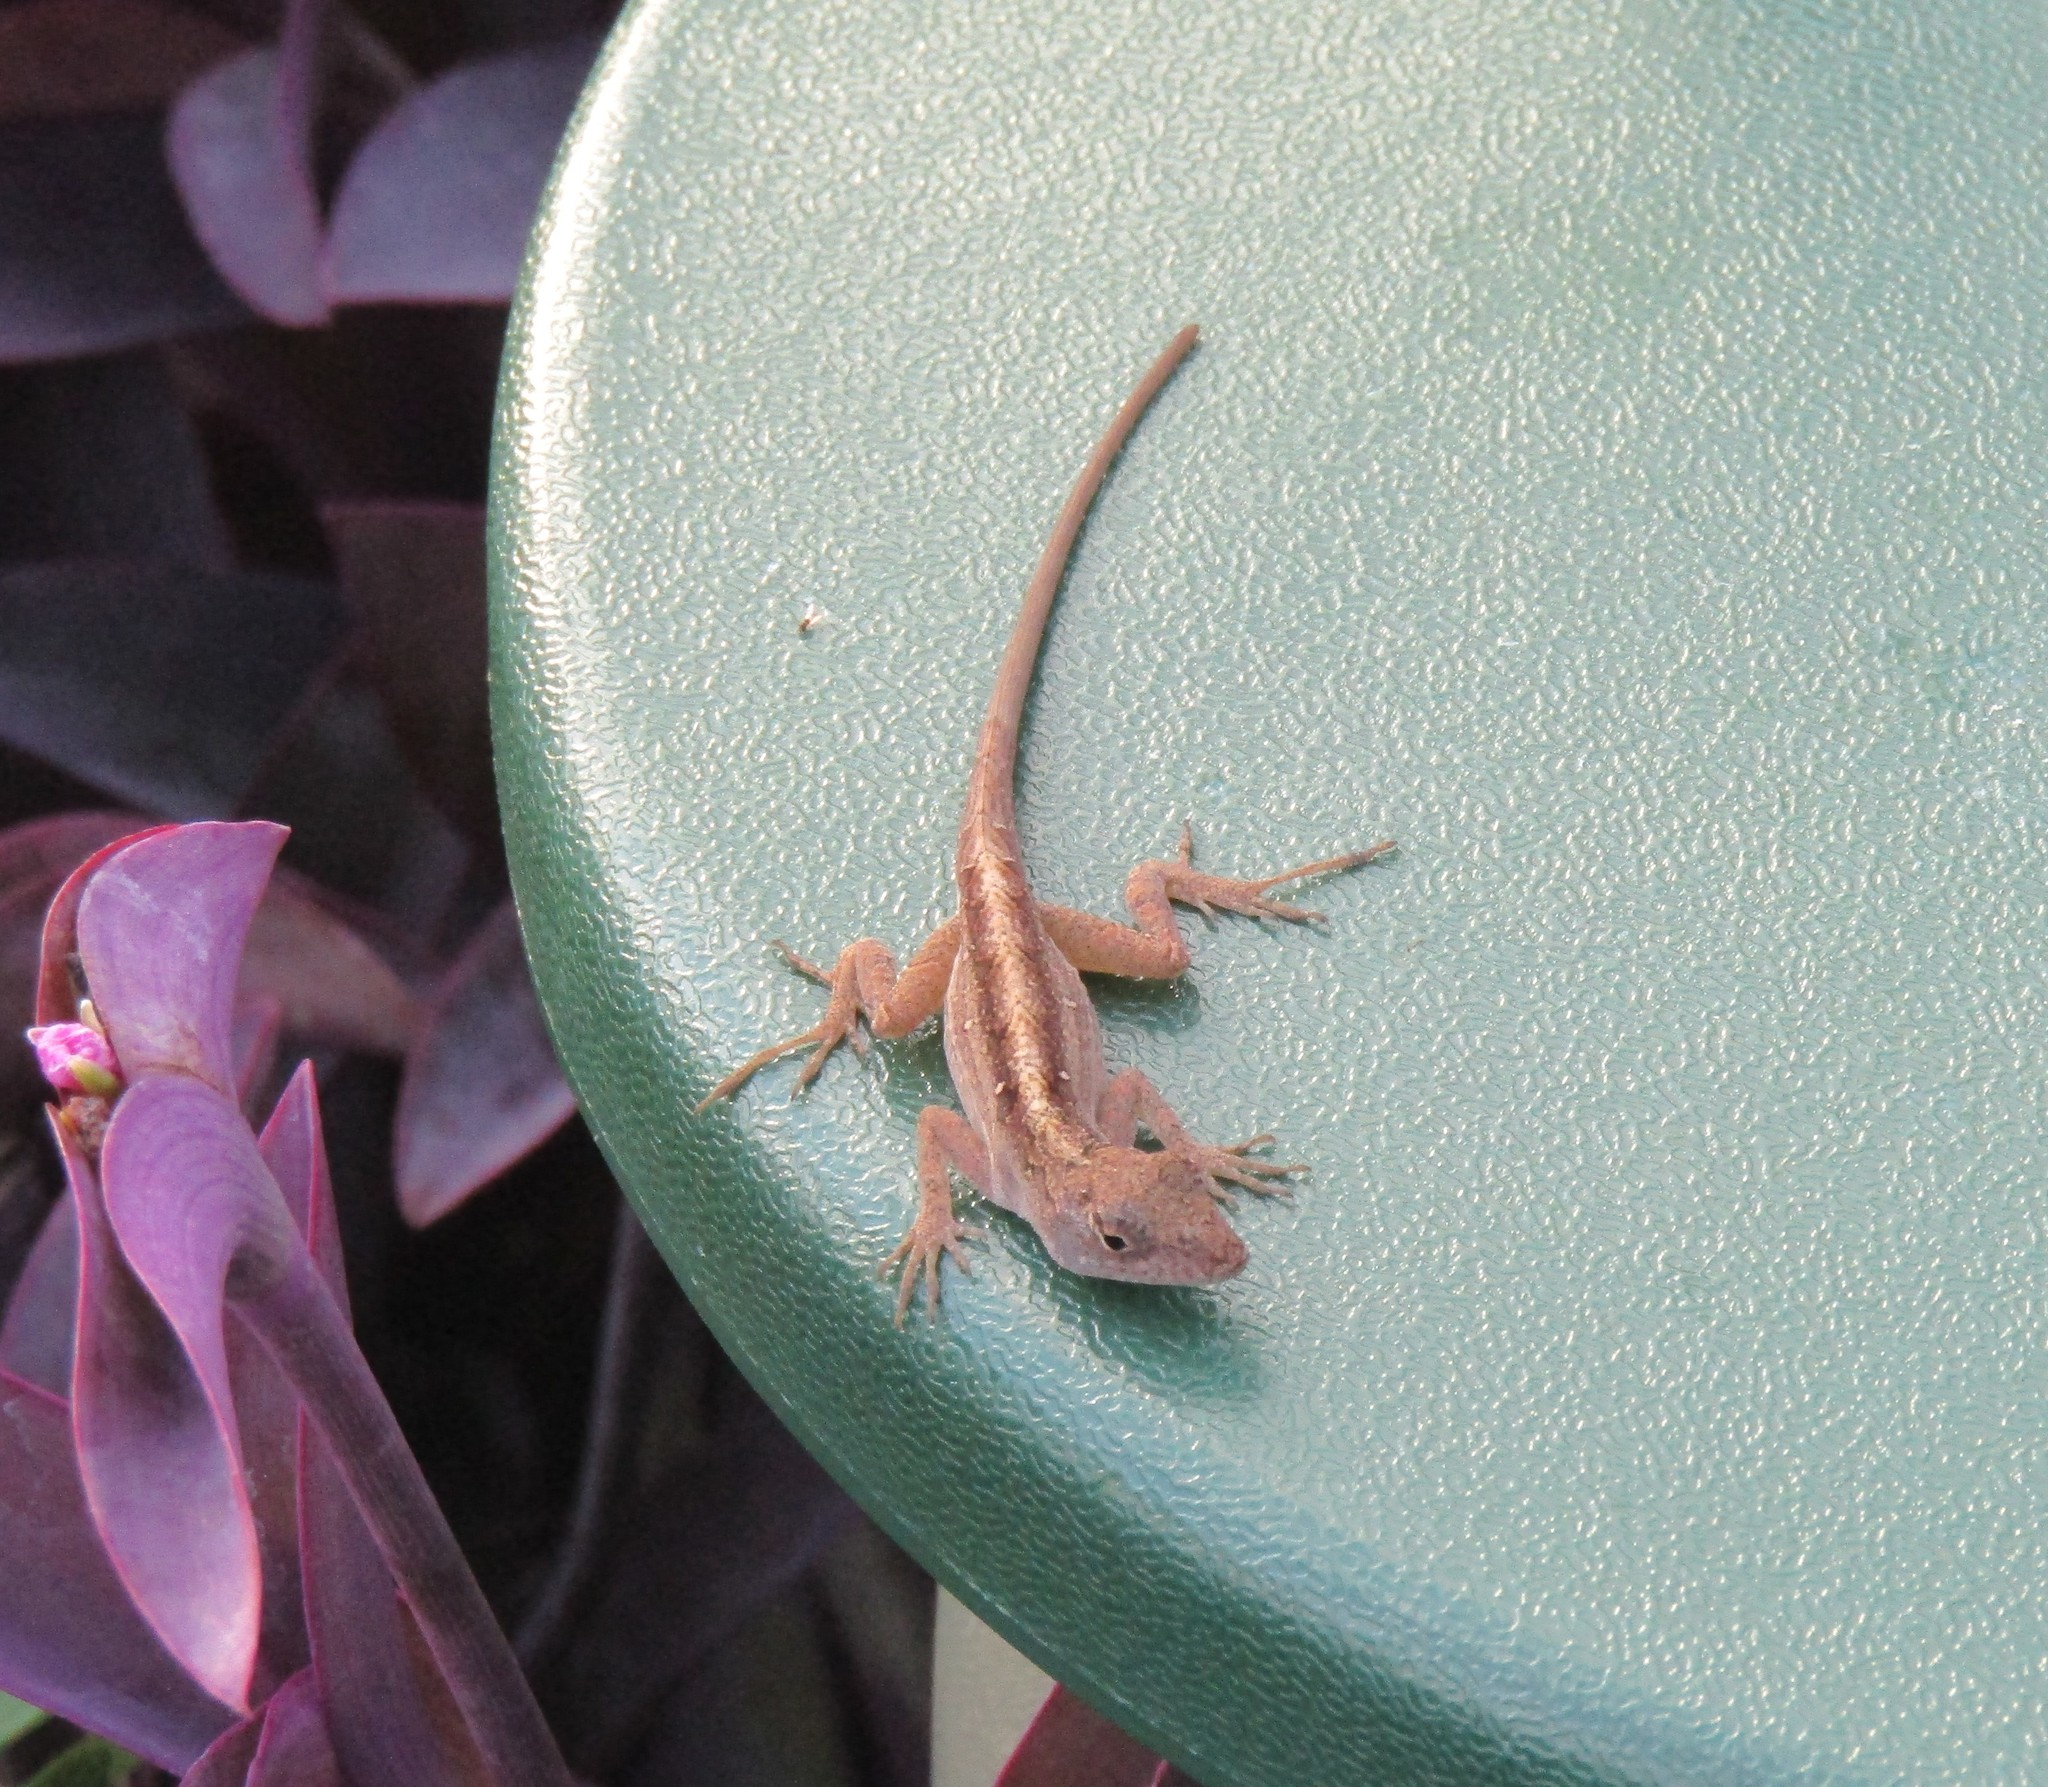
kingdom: Animalia
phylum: Chordata
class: Squamata
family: Dactyloidae
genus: Anolis
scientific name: Anolis sagrei
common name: Brown anole
